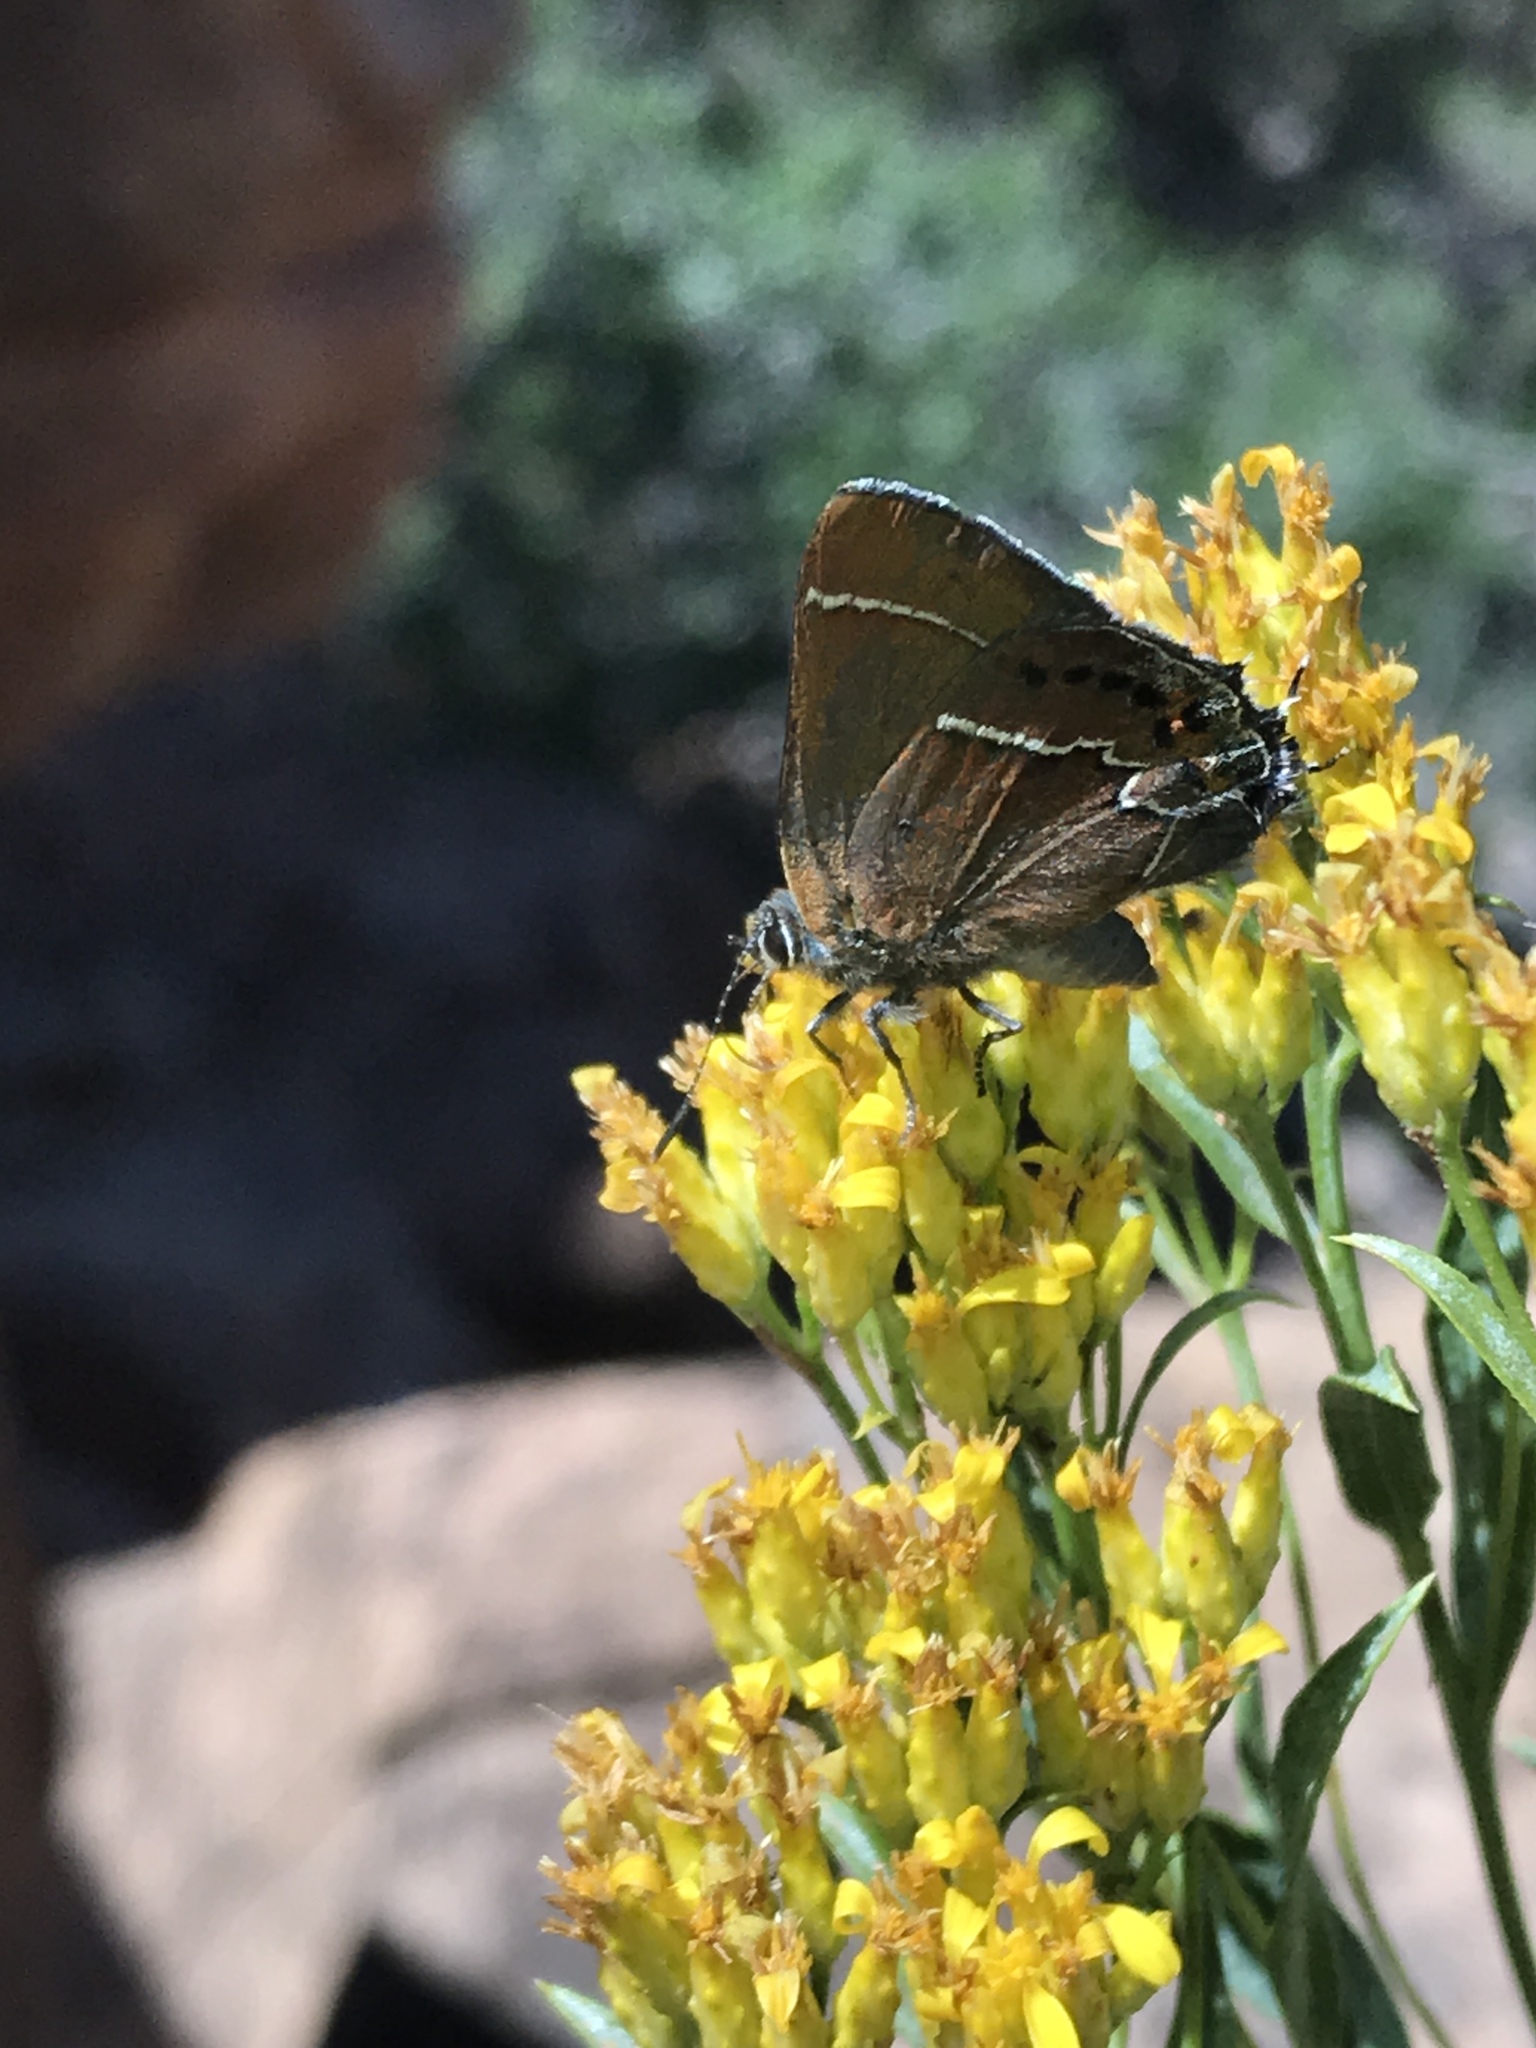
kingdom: Animalia
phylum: Arthropoda
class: Insecta
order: Lepidoptera
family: Lycaenidae
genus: Mitoura
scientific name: Mitoura spinetorum
